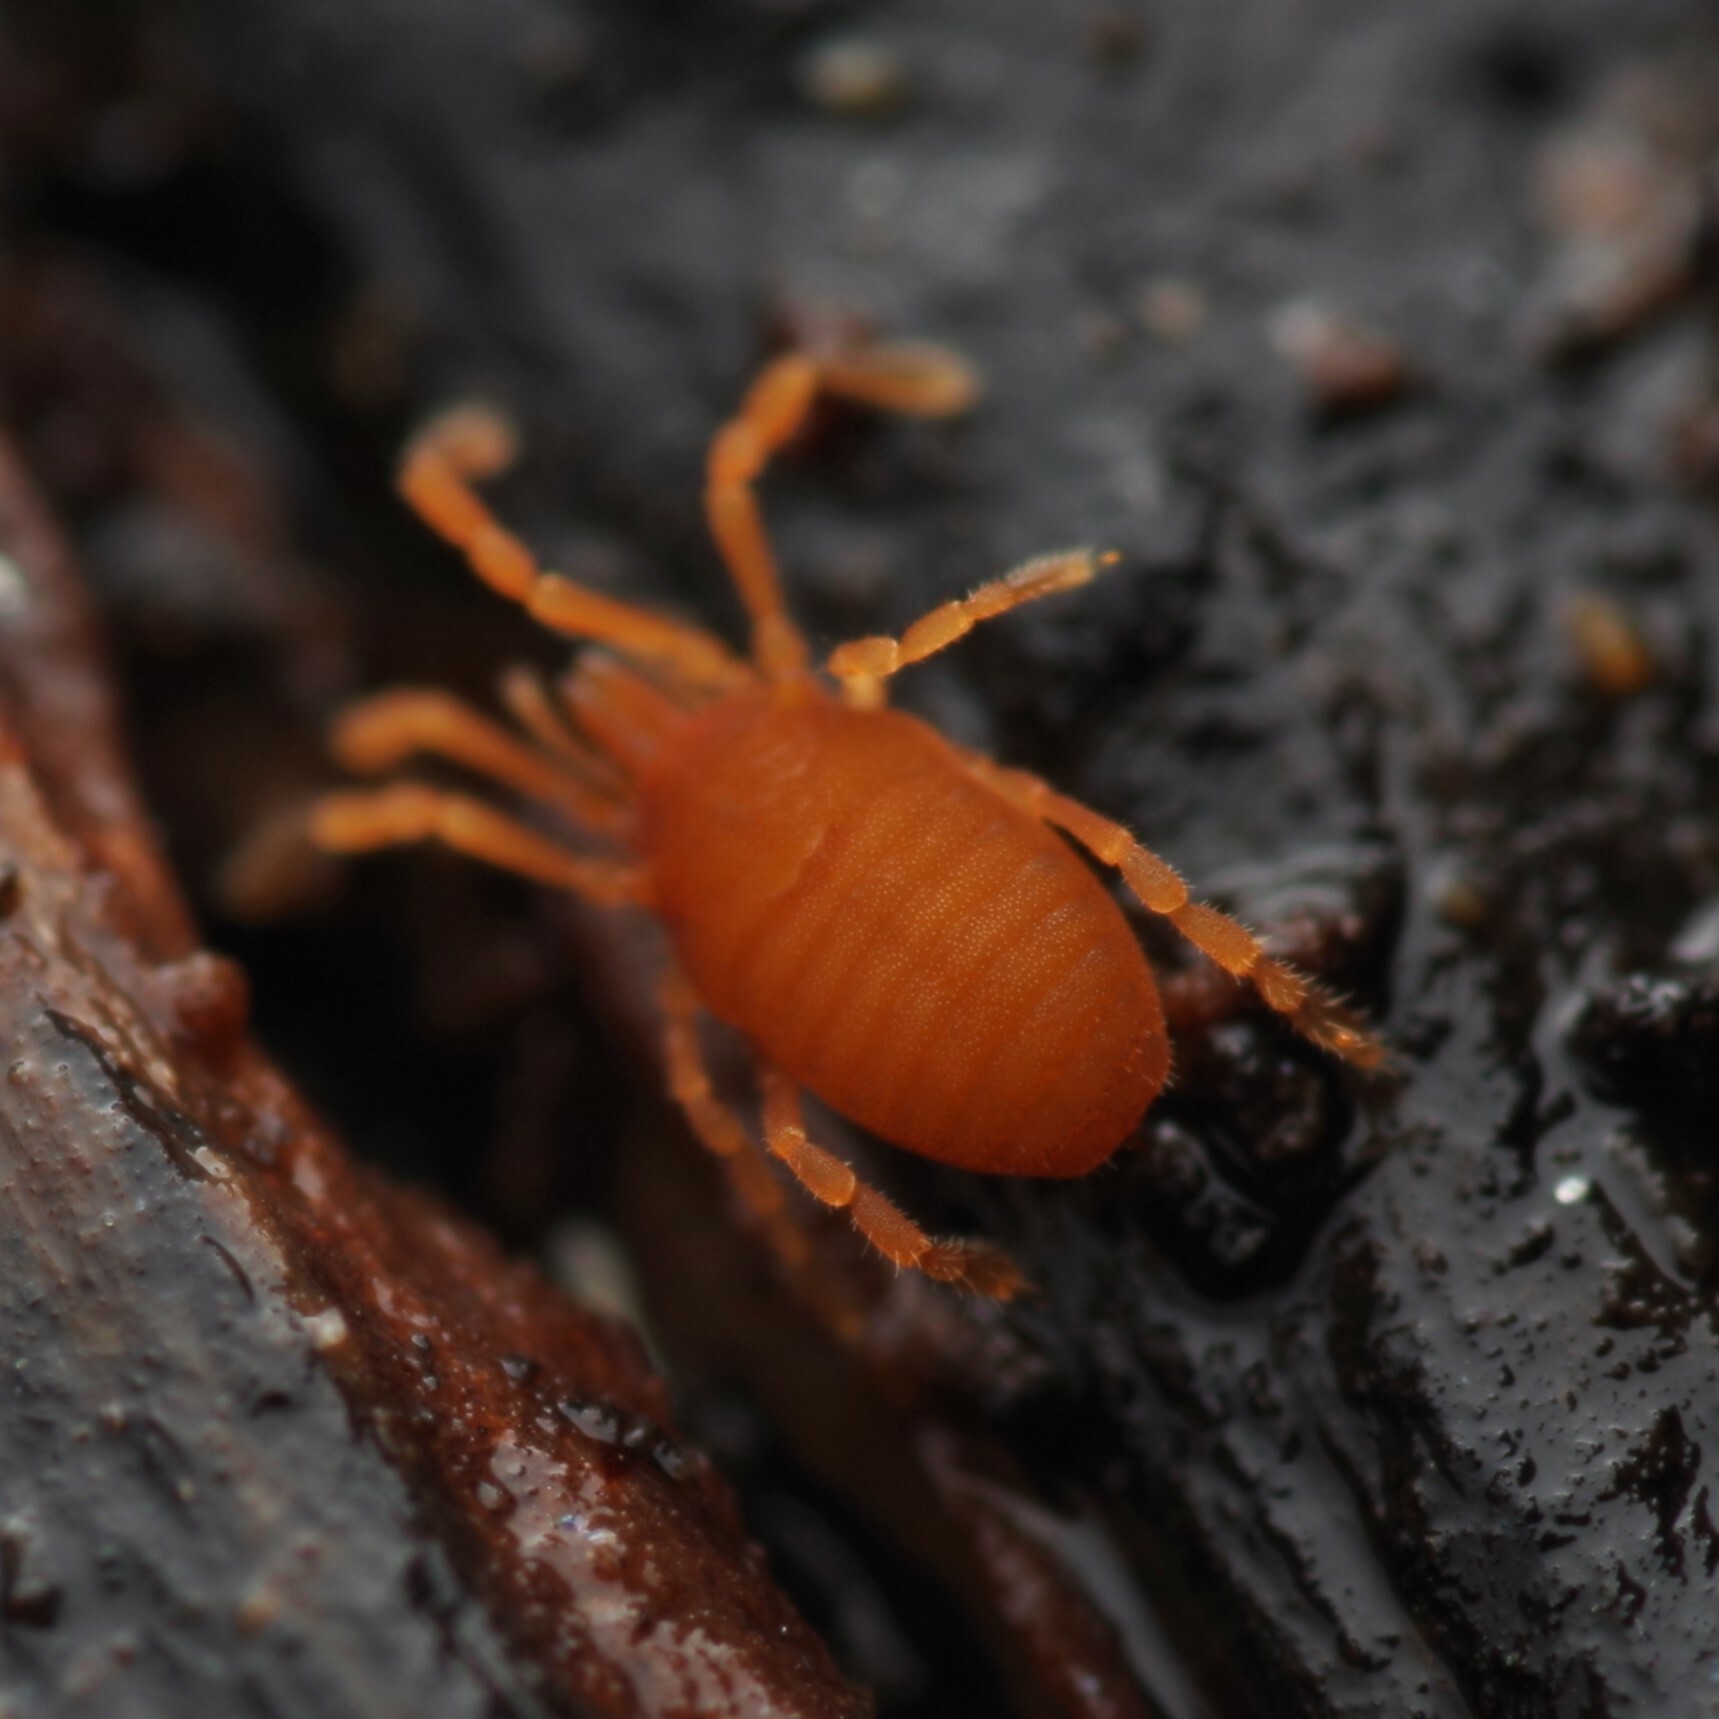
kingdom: Animalia
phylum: Arthropoda
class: Arachnida
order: Opiliones
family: Sironidae
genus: Siro
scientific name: Siro rubens
